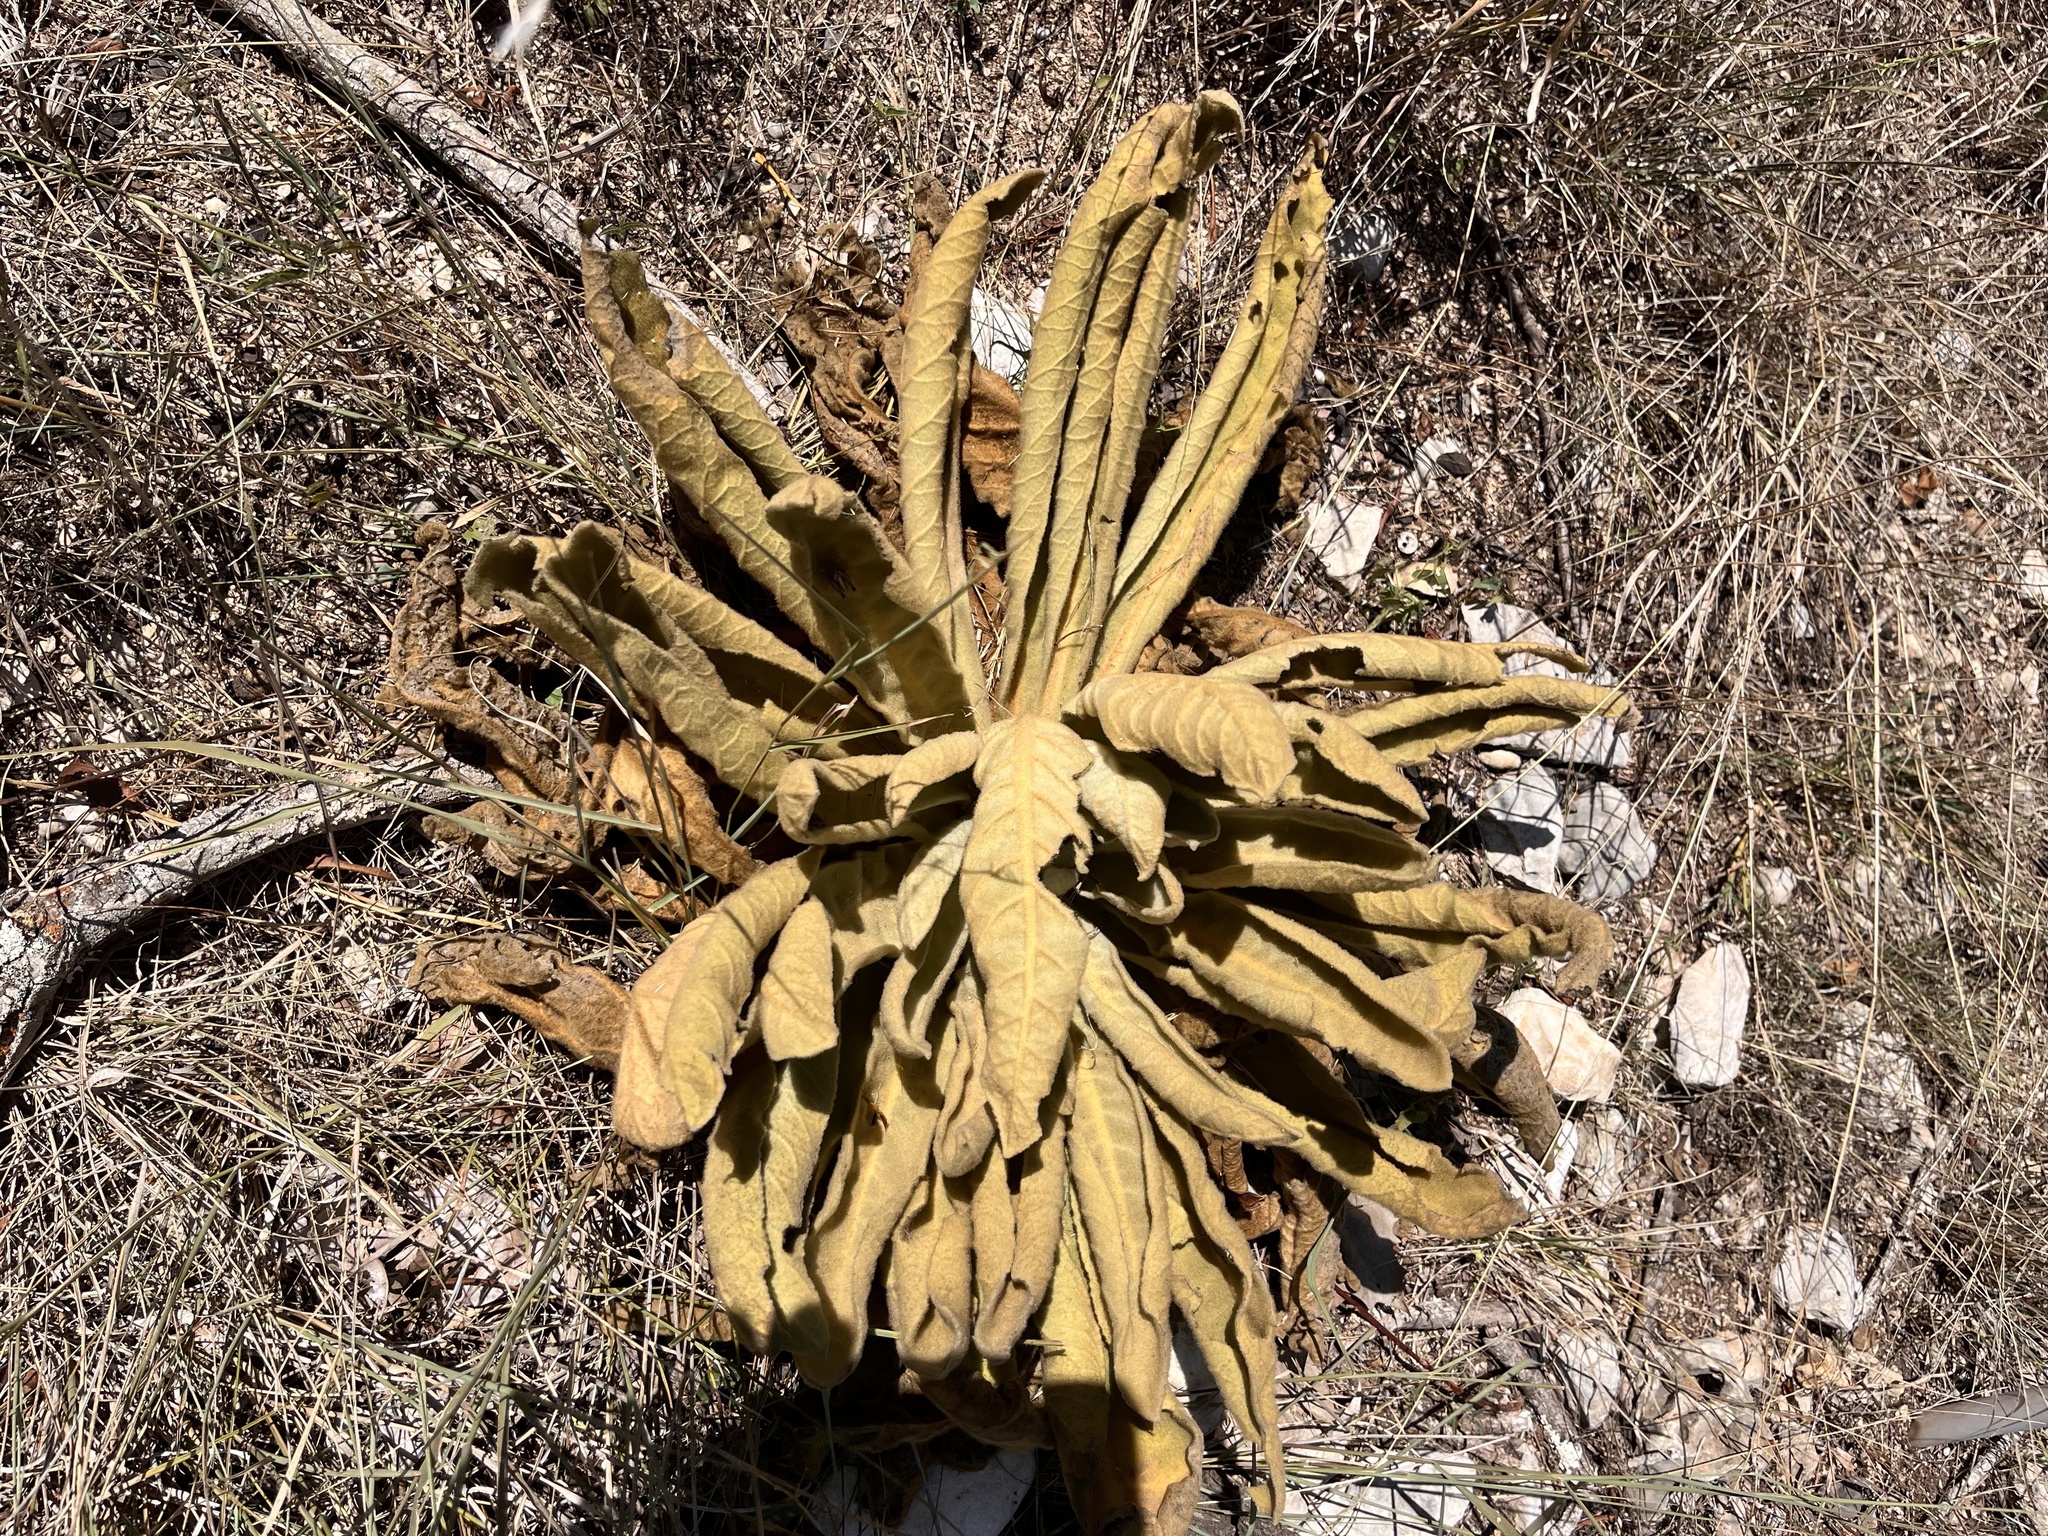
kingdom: Plantae
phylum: Tracheophyta
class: Magnoliopsida
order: Lamiales
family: Scrophulariaceae
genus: Verbascum
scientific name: Verbascum thapsus
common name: Common mullein
